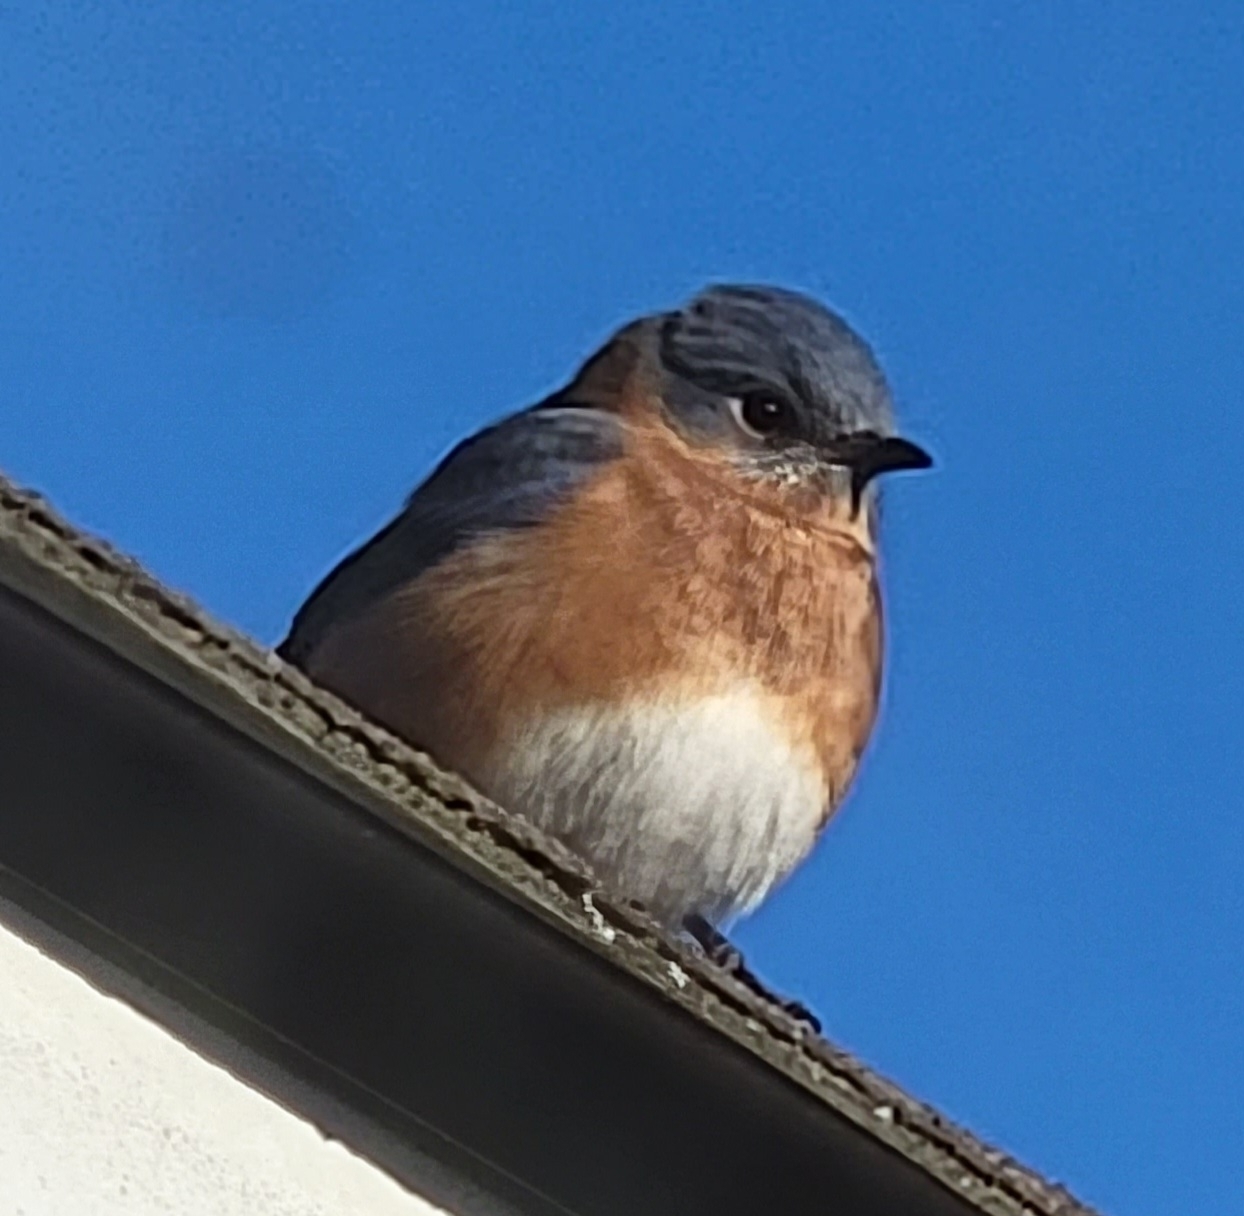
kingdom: Animalia
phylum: Chordata
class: Aves
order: Passeriformes
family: Turdidae
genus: Sialia
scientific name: Sialia sialis
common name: Eastern bluebird
